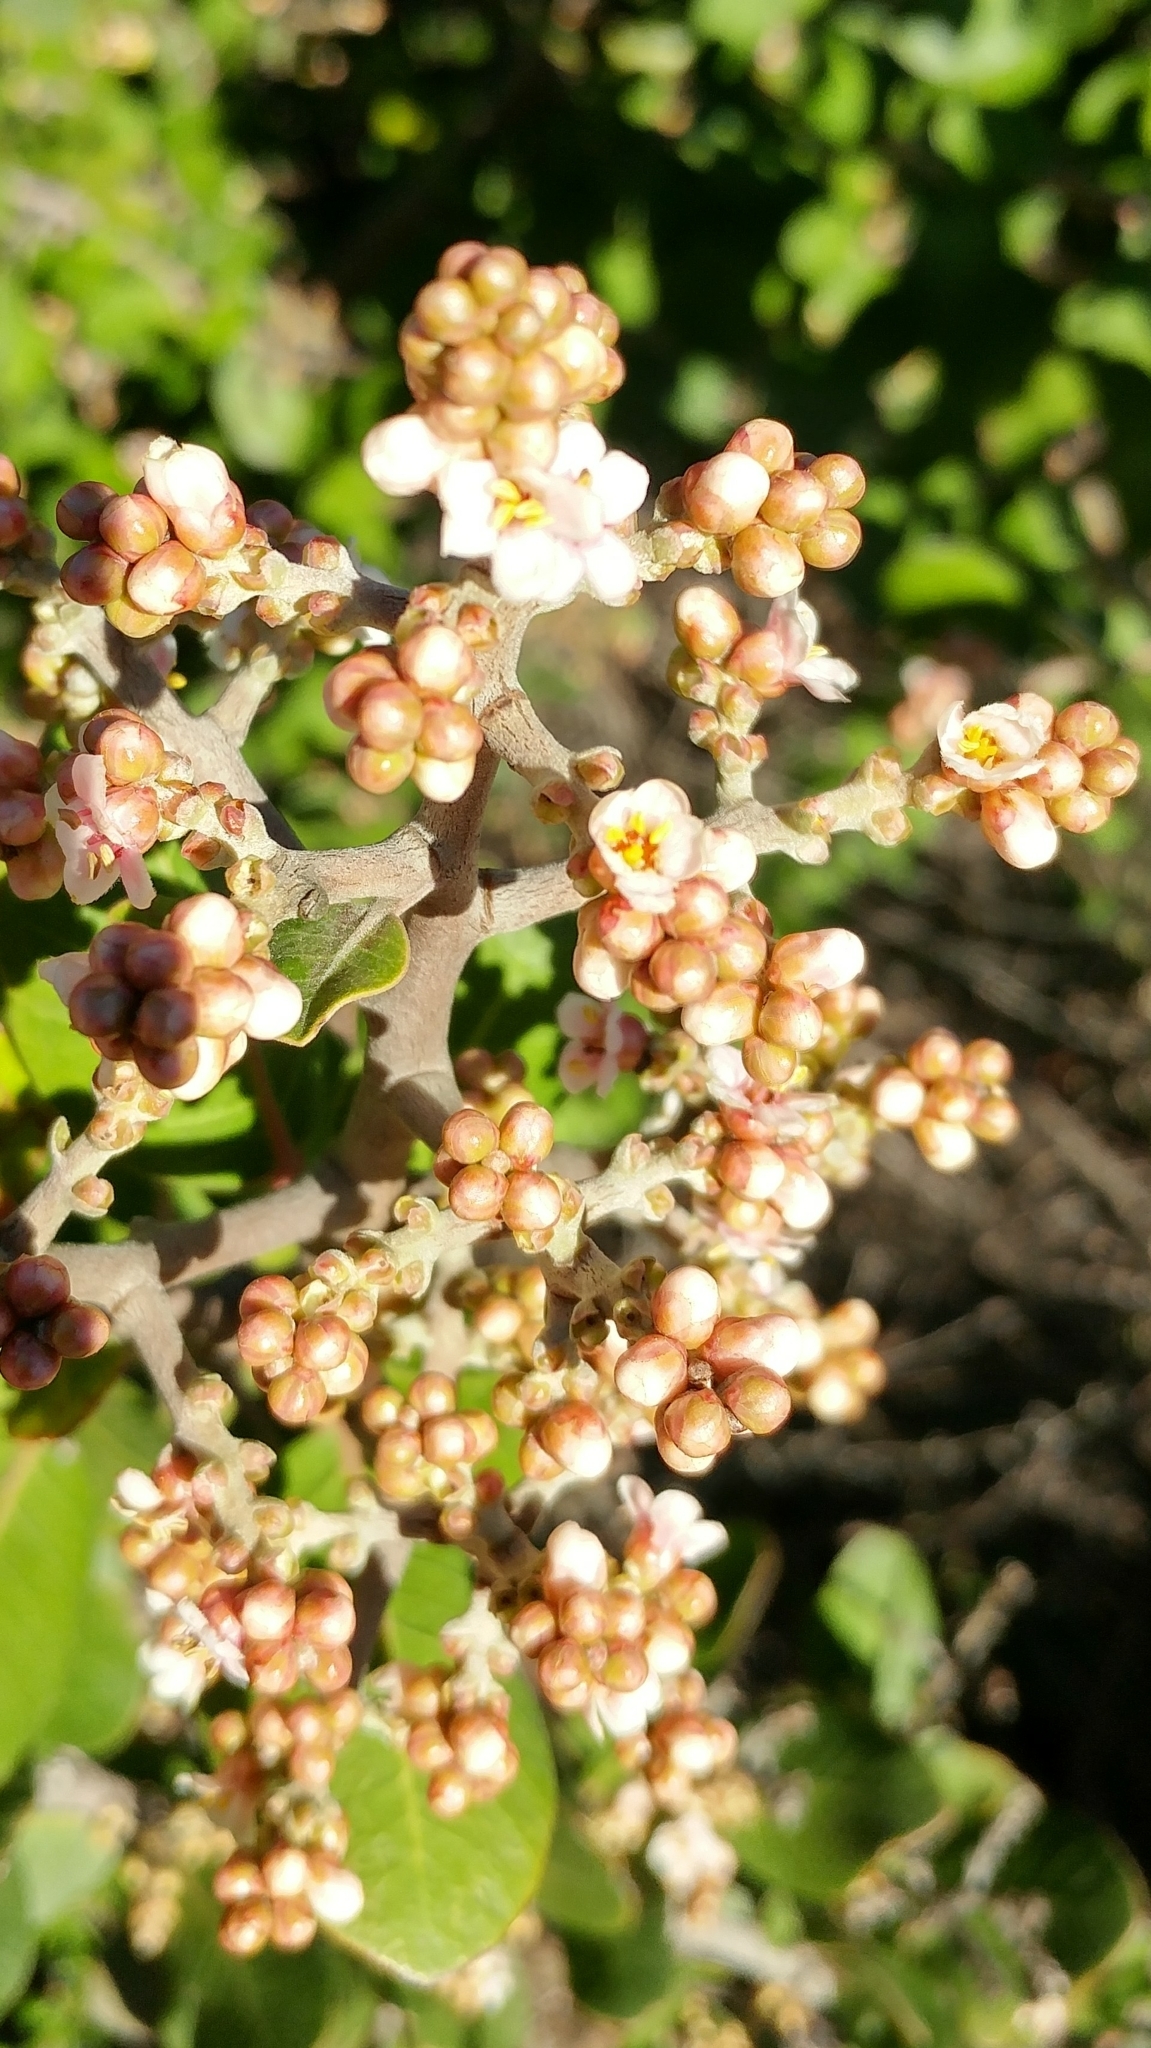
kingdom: Plantae
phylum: Tracheophyta
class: Magnoliopsida
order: Sapindales
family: Anacardiaceae
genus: Rhus
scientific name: Rhus integrifolia
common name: Lemonade sumac
